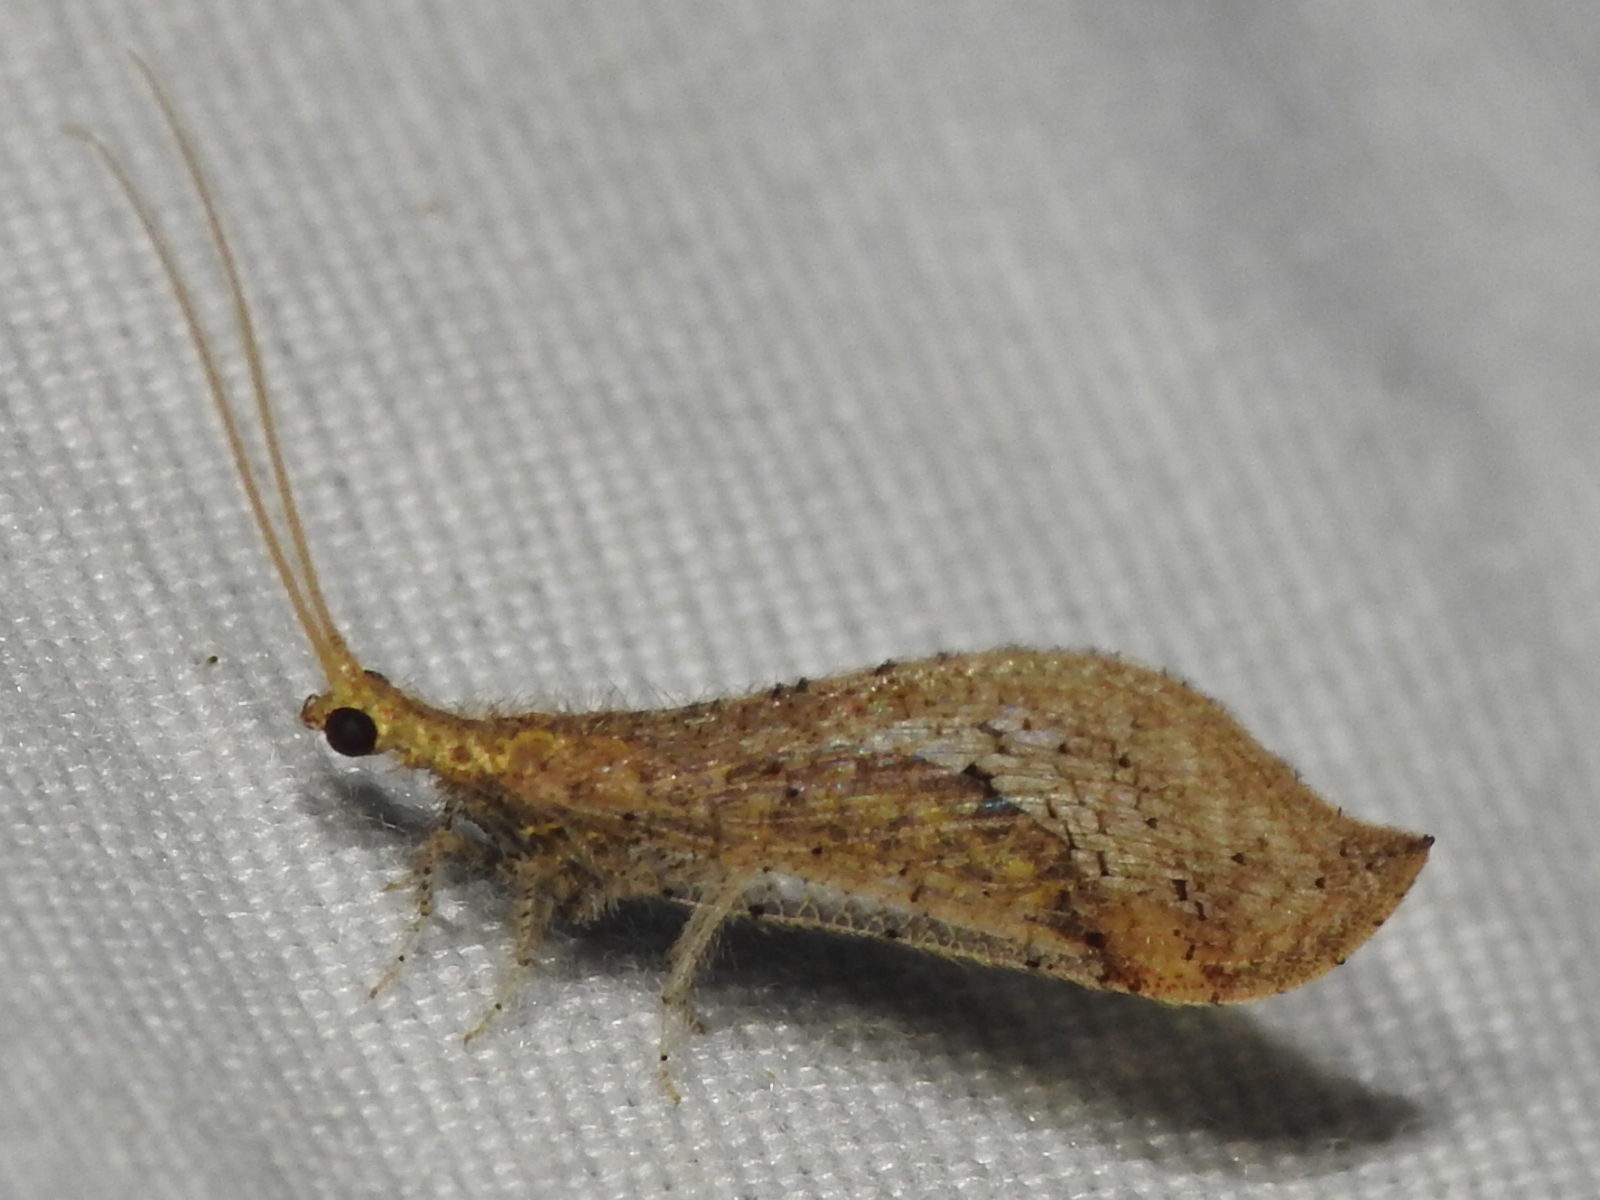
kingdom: Animalia
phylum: Arthropoda
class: Insecta
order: Neuroptera
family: Berothidae
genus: Lomamyia
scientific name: Lomamyia squamosa
